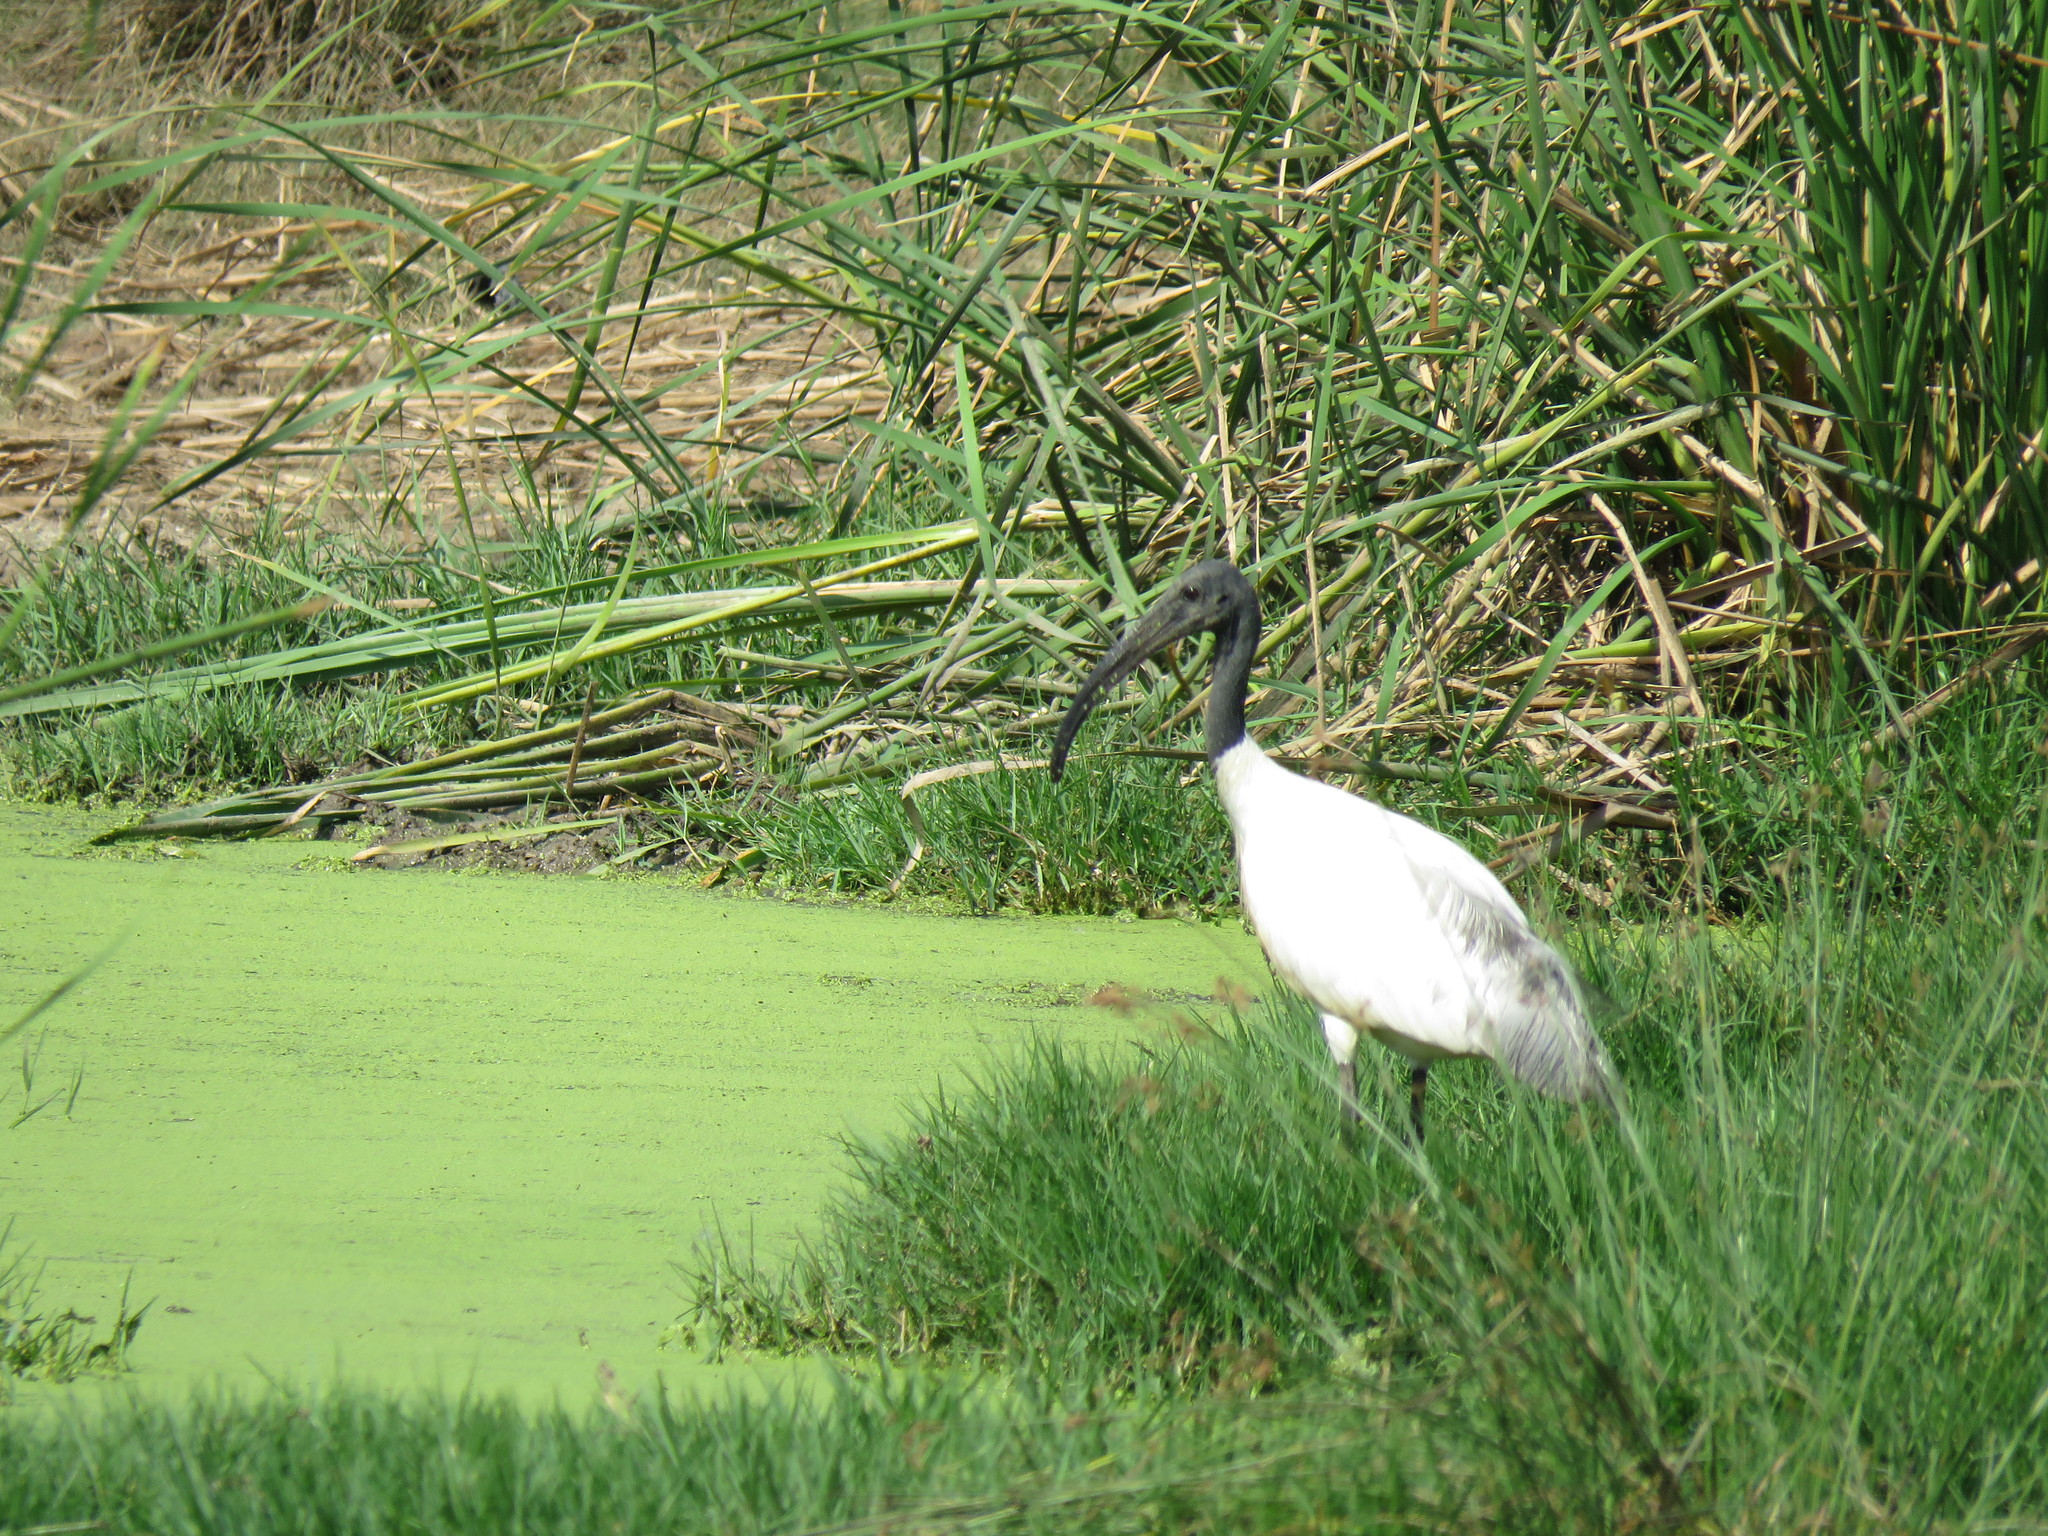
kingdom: Animalia
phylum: Chordata
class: Aves
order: Pelecaniformes
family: Threskiornithidae
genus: Threskiornis
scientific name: Threskiornis melanocephalus
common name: Black-headed ibis
